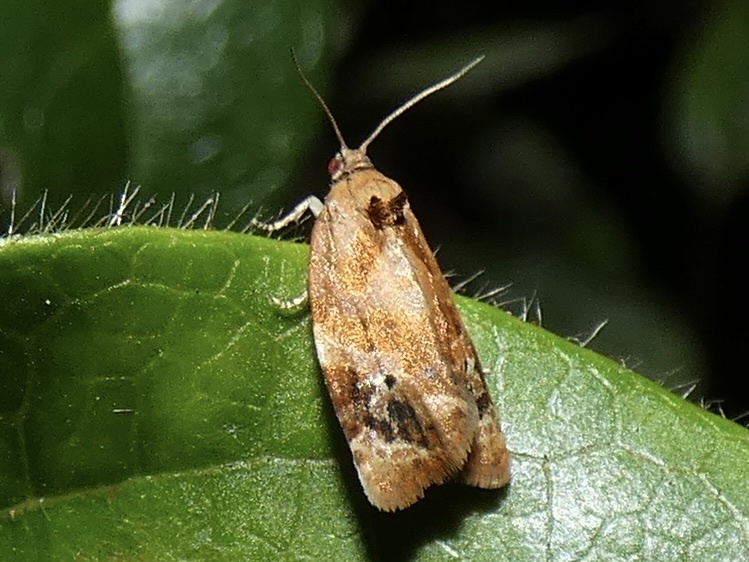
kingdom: Animalia
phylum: Arthropoda
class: Insecta
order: Lepidoptera
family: Tortricidae
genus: Ditula
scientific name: Ditula angustiorana
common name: Red-barred tortrix
